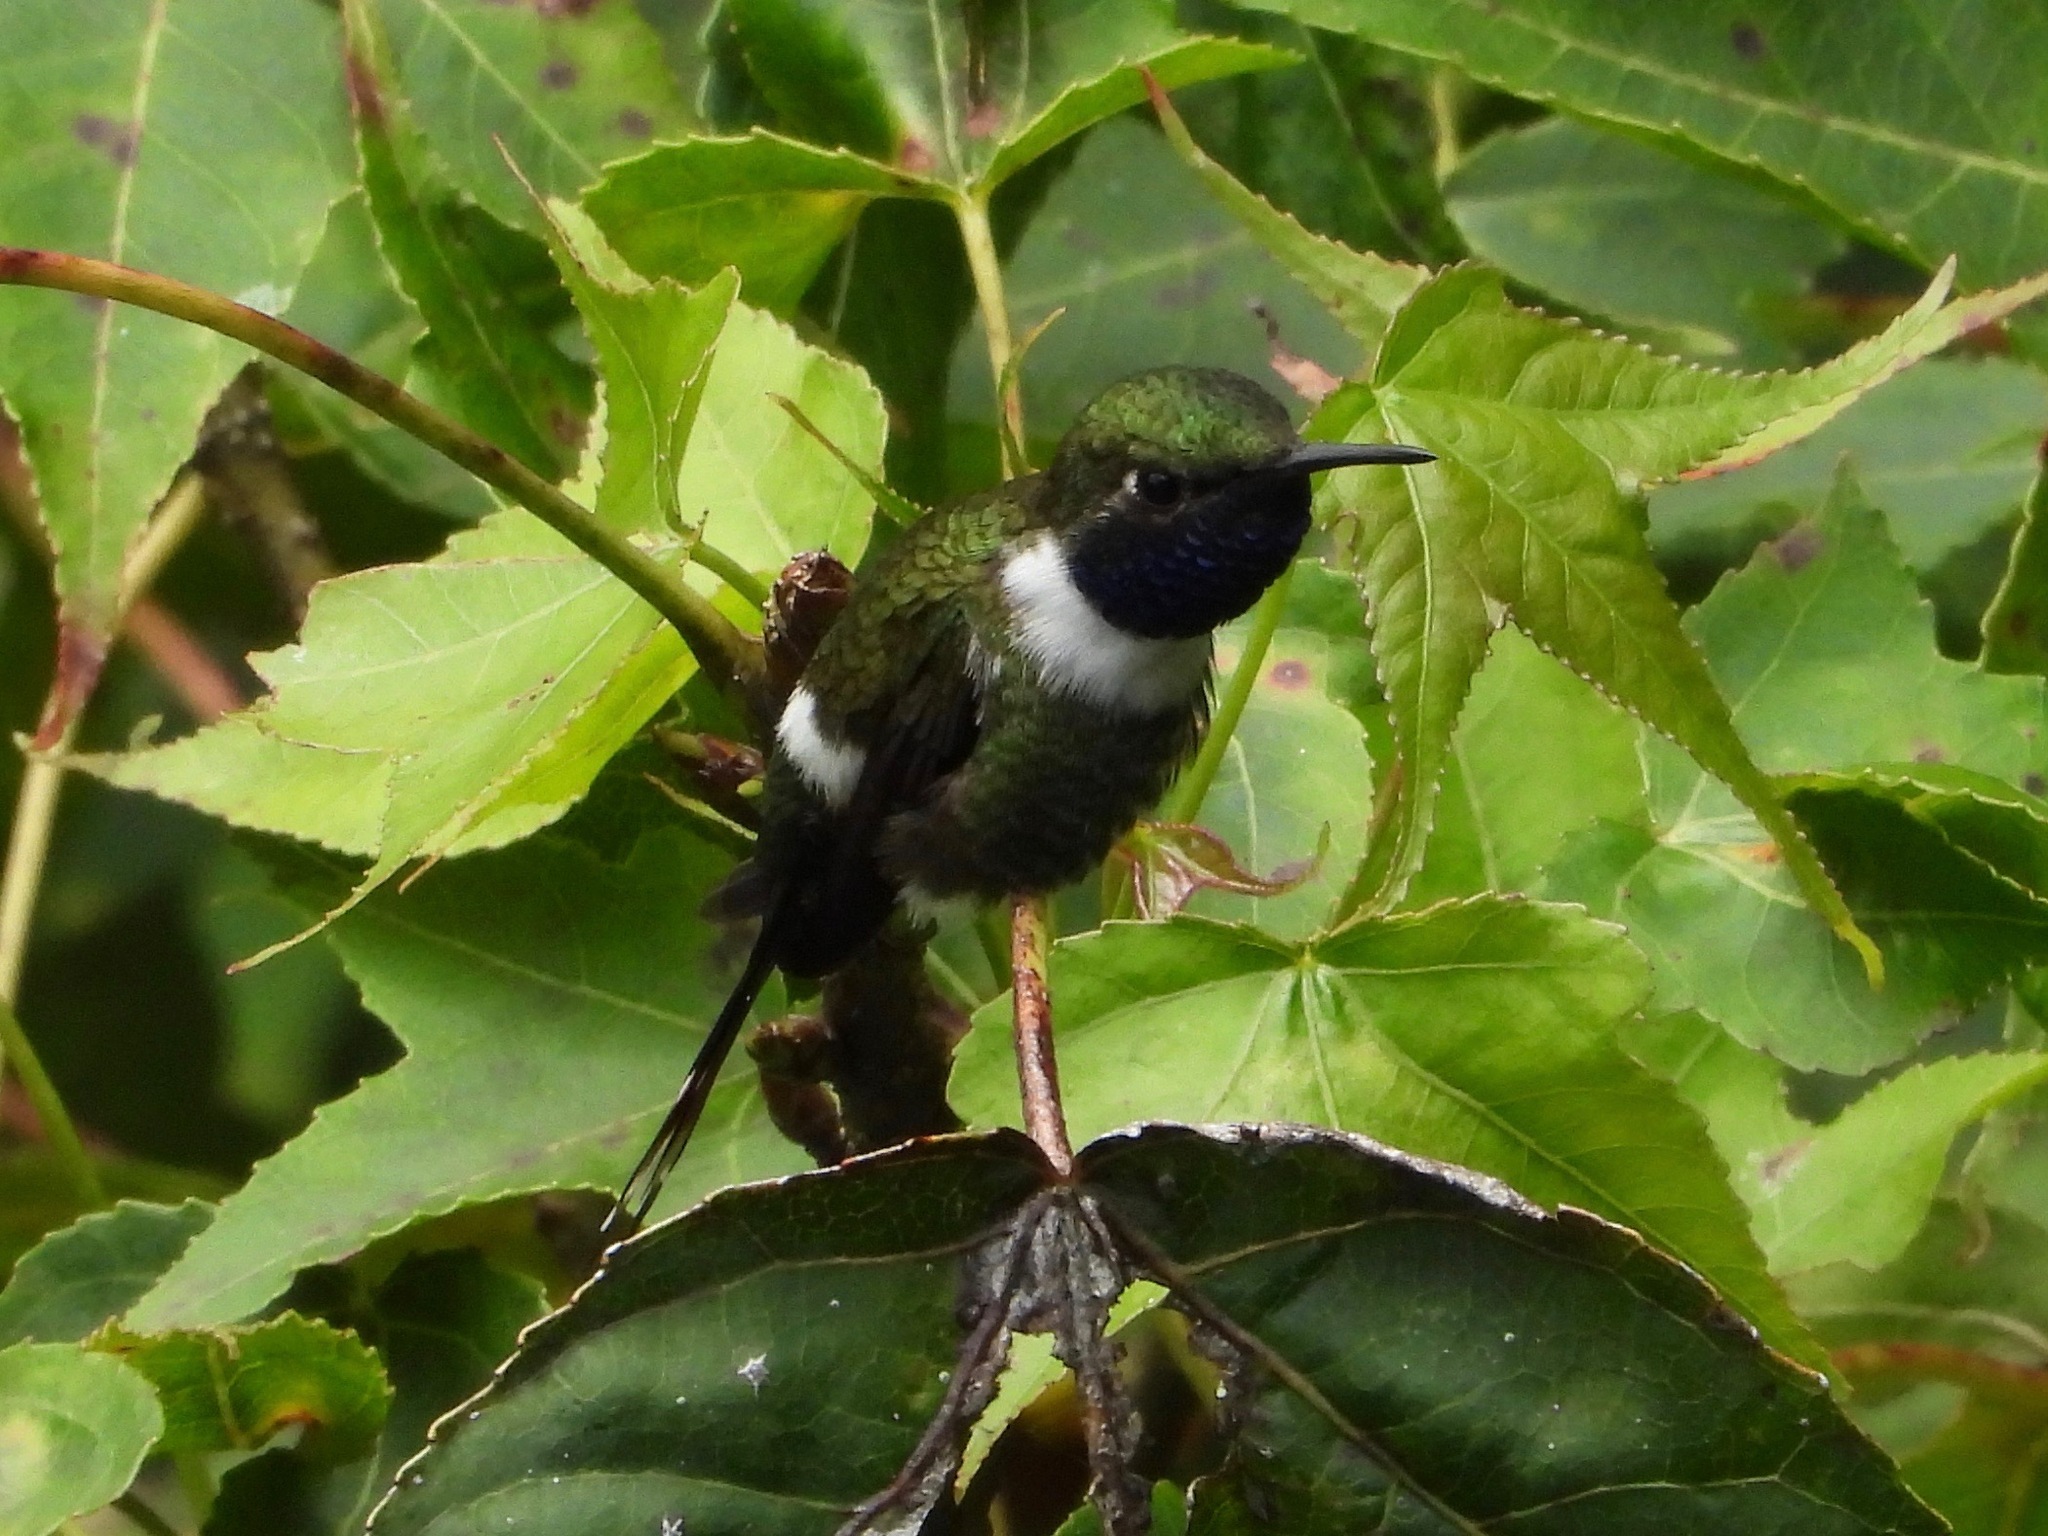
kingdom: Animalia
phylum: Chordata
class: Aves
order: Apodiformes
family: Trochilidae
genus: Tilmatura
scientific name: Tilmatura dupontii
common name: Sparkling-tailed woodstar
